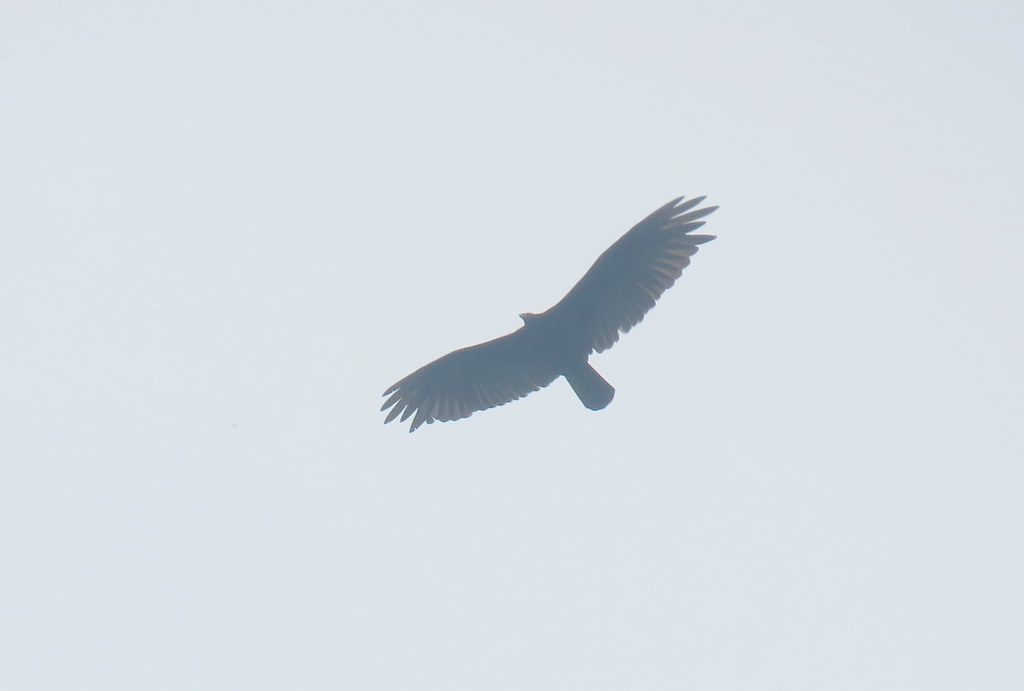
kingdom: Animalia
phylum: Chordata
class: Aves
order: Accipitriformes
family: Cathartidae
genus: Cathartes
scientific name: Cathartes aura
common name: Turkey vulture
